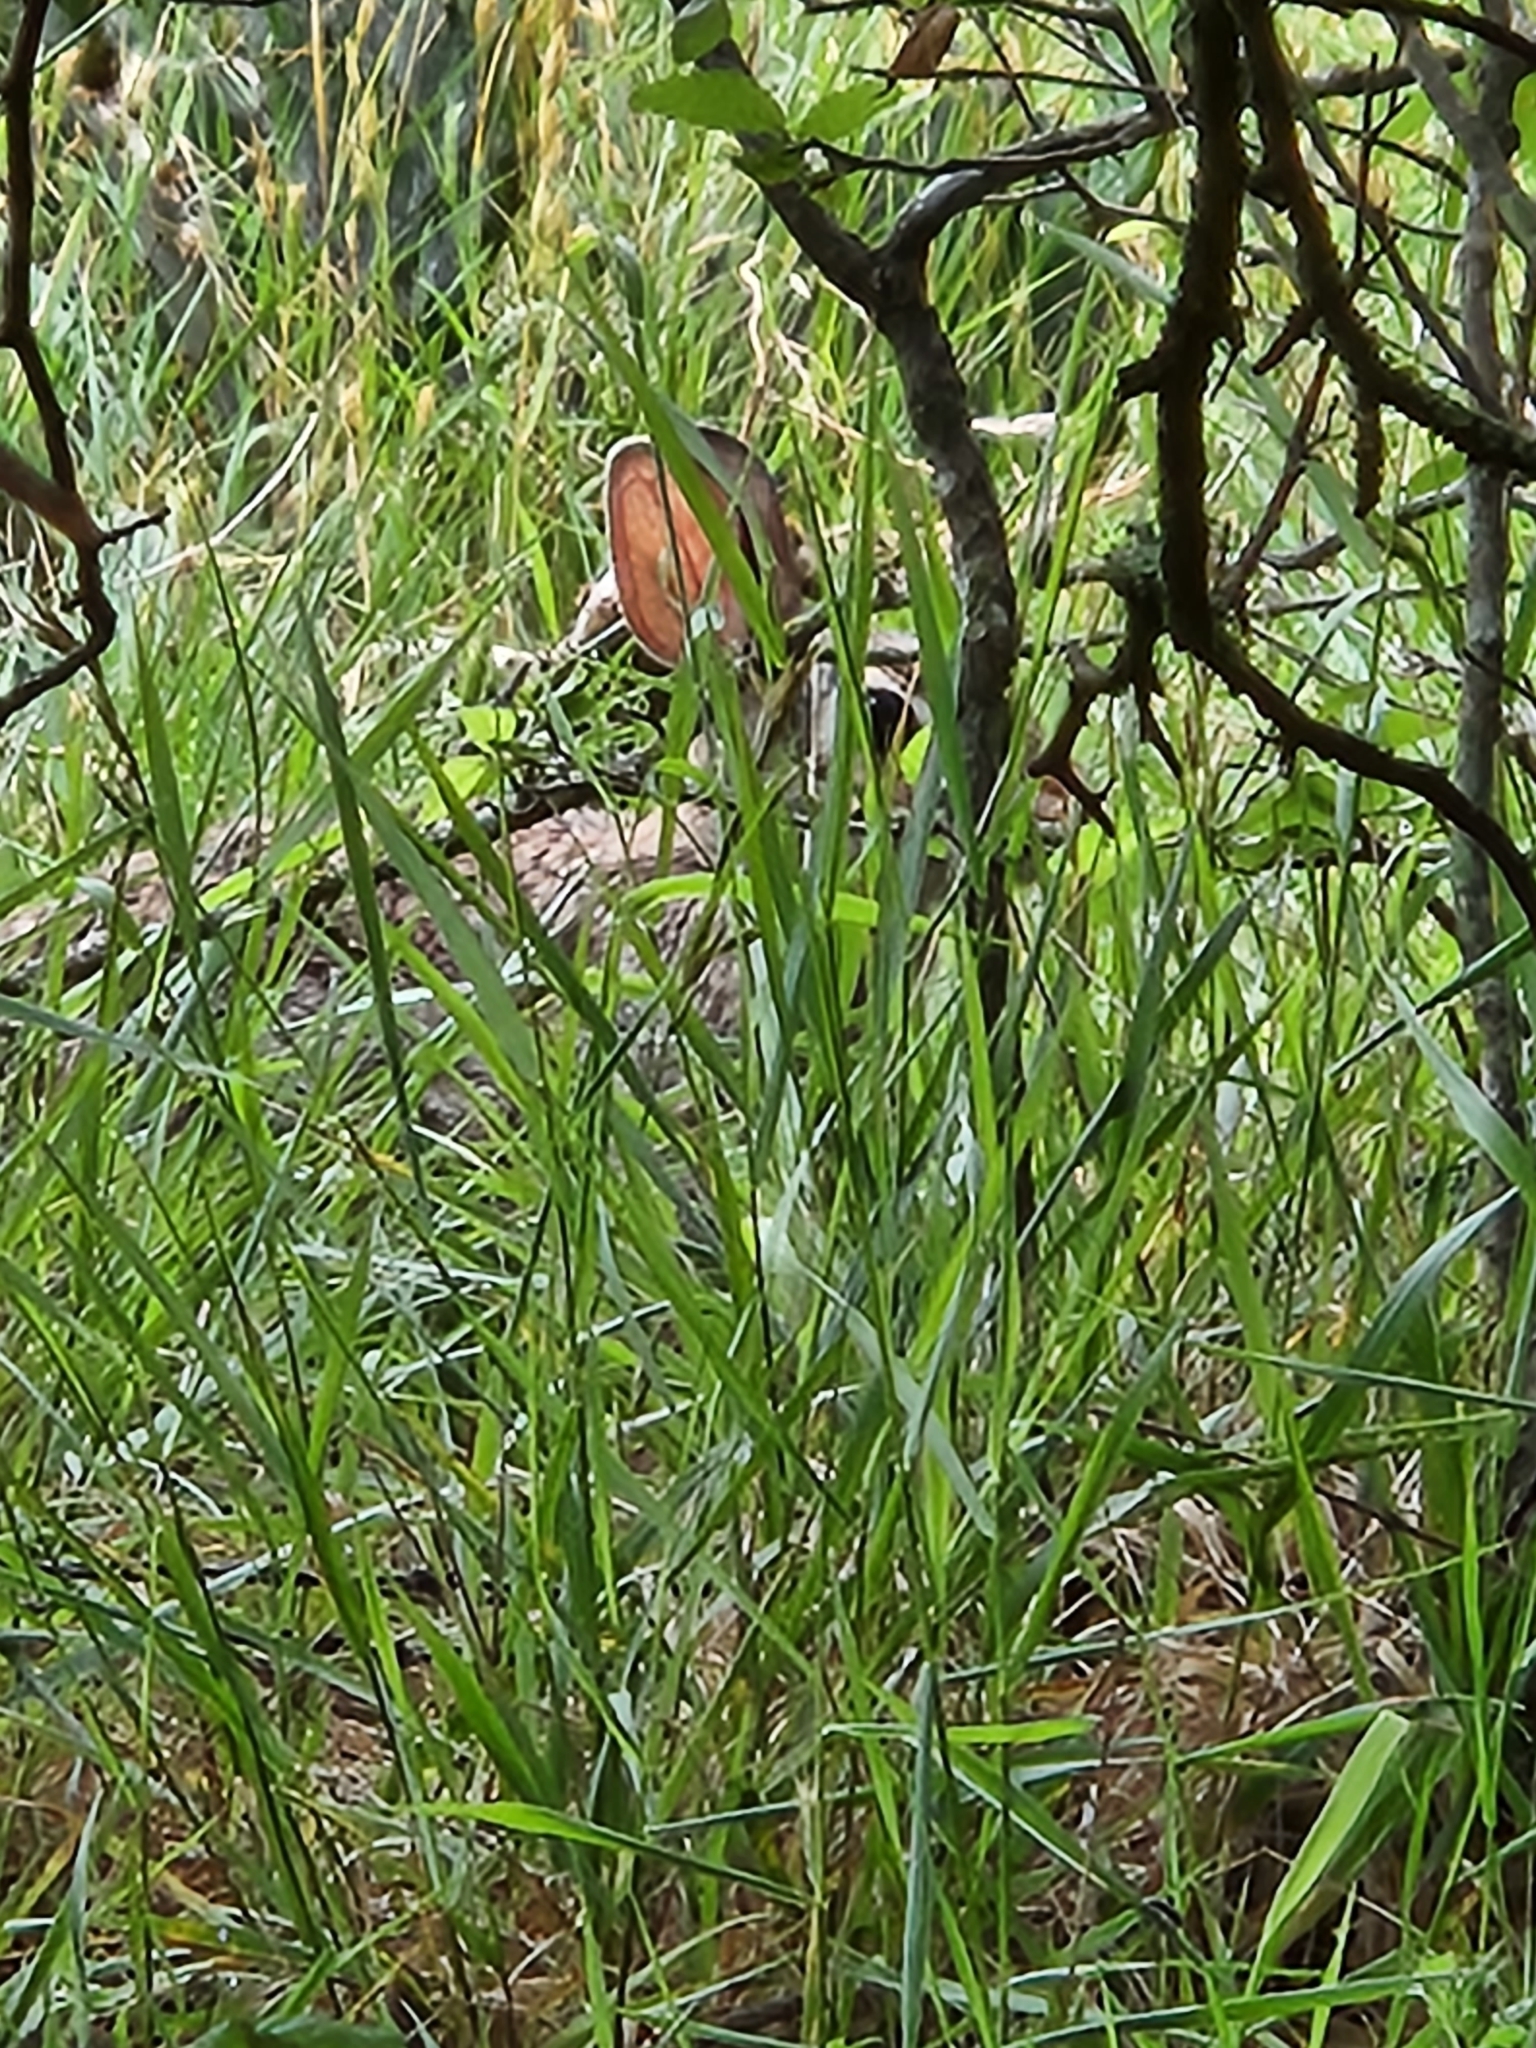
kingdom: Animalia
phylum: Chordata
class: Mammalia
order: Lagomorpha
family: Leporidae
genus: Sylvilagus
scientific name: Sylvilagus floridanus
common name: Eastern cottontail
